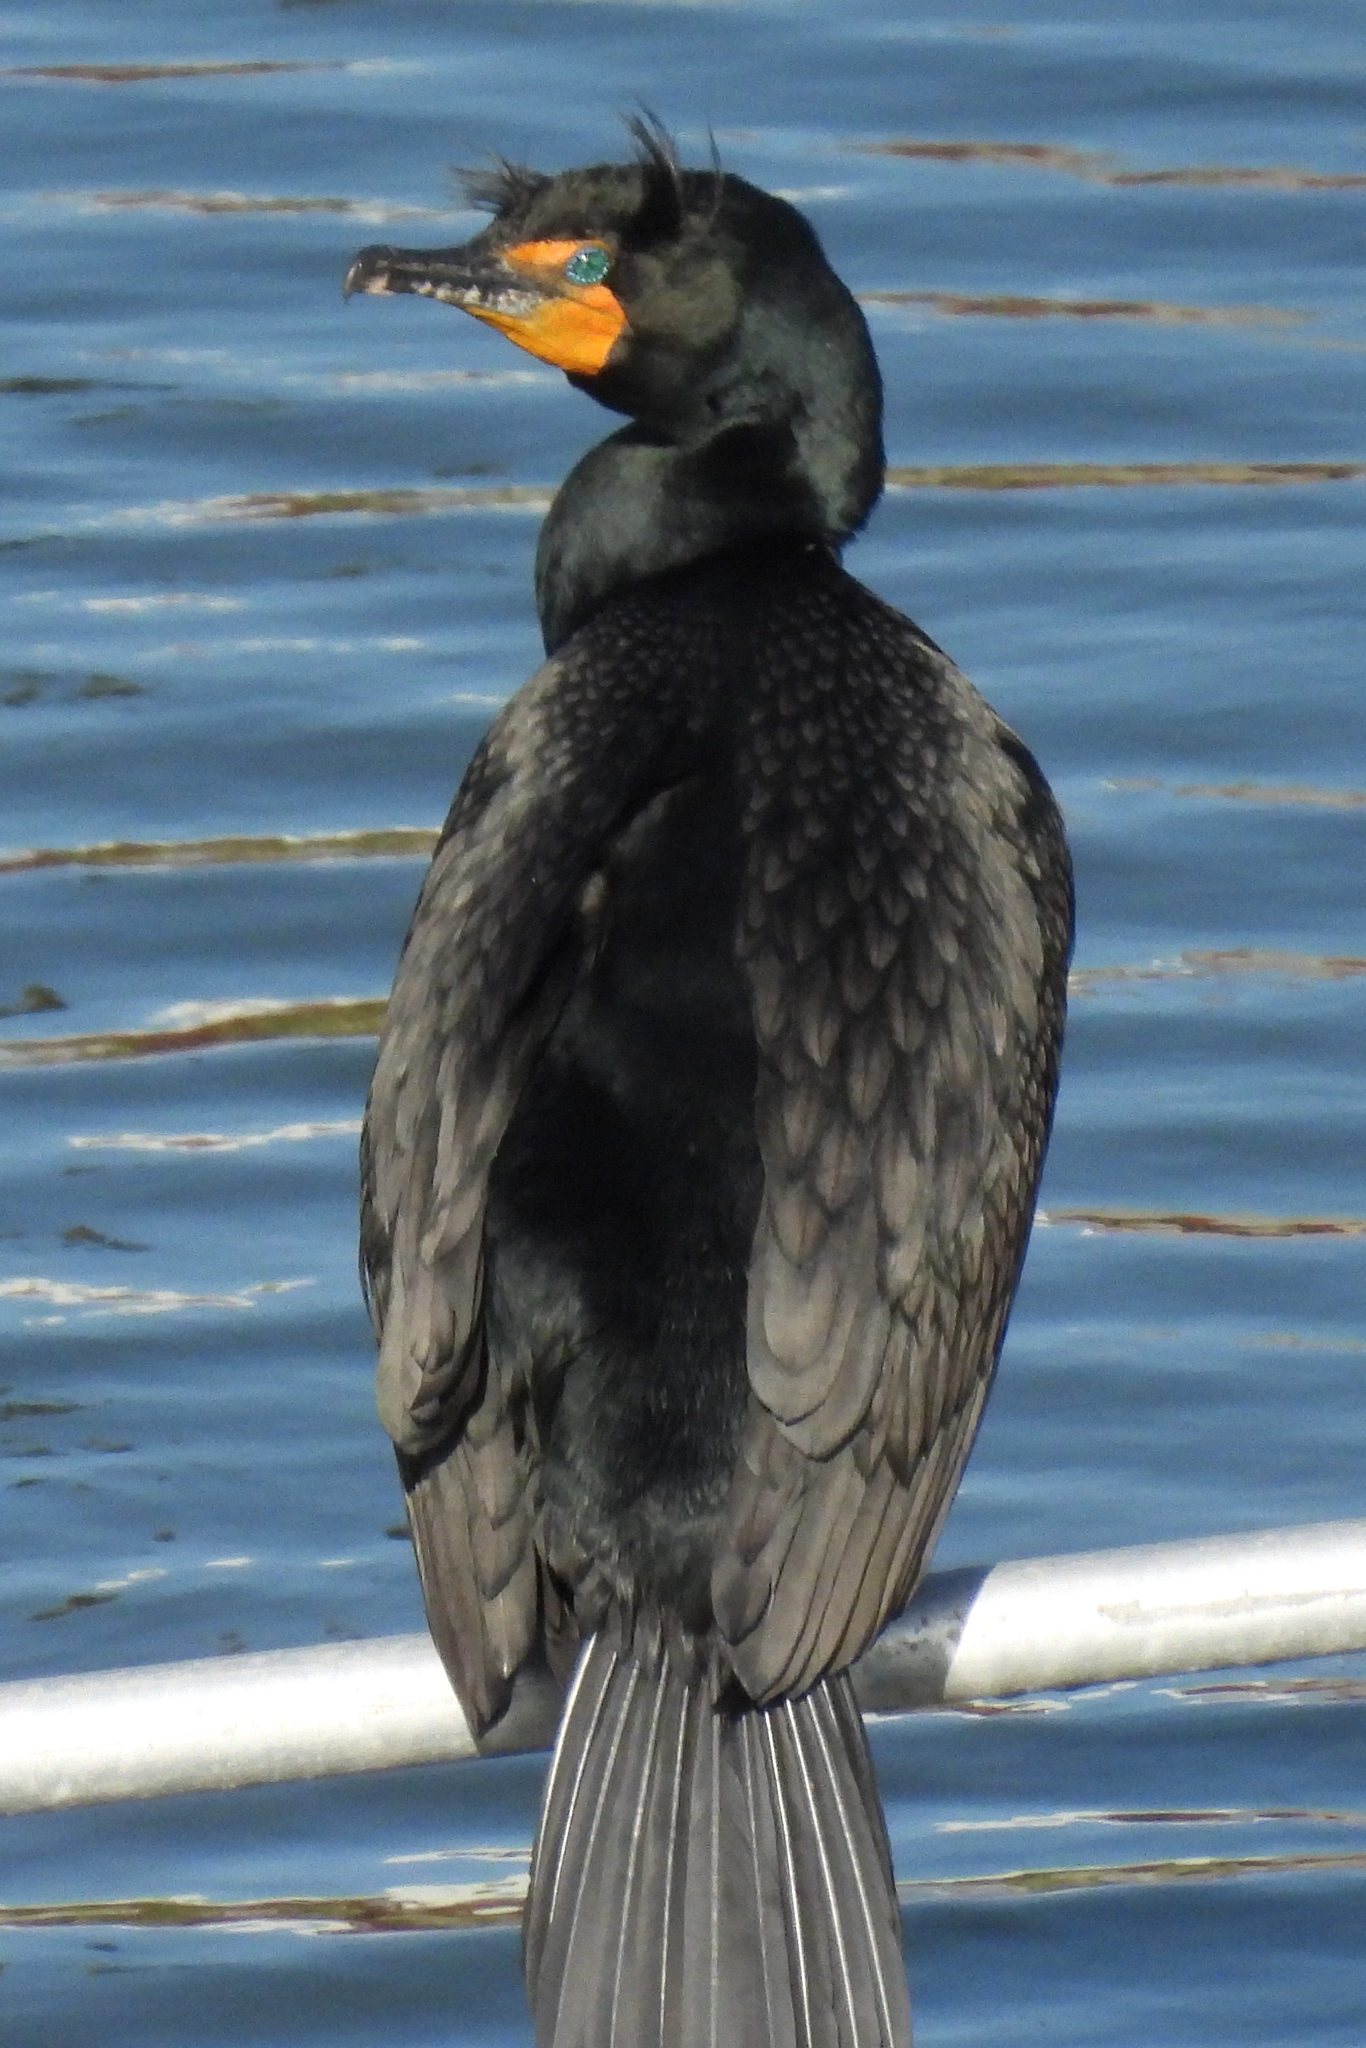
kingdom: Animalia
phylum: Chordata
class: Aves
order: Suliformes
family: Phalacrocoracidae
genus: Phalacrocorax
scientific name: Phalacrocorax auritus
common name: Double-crested cormorant
